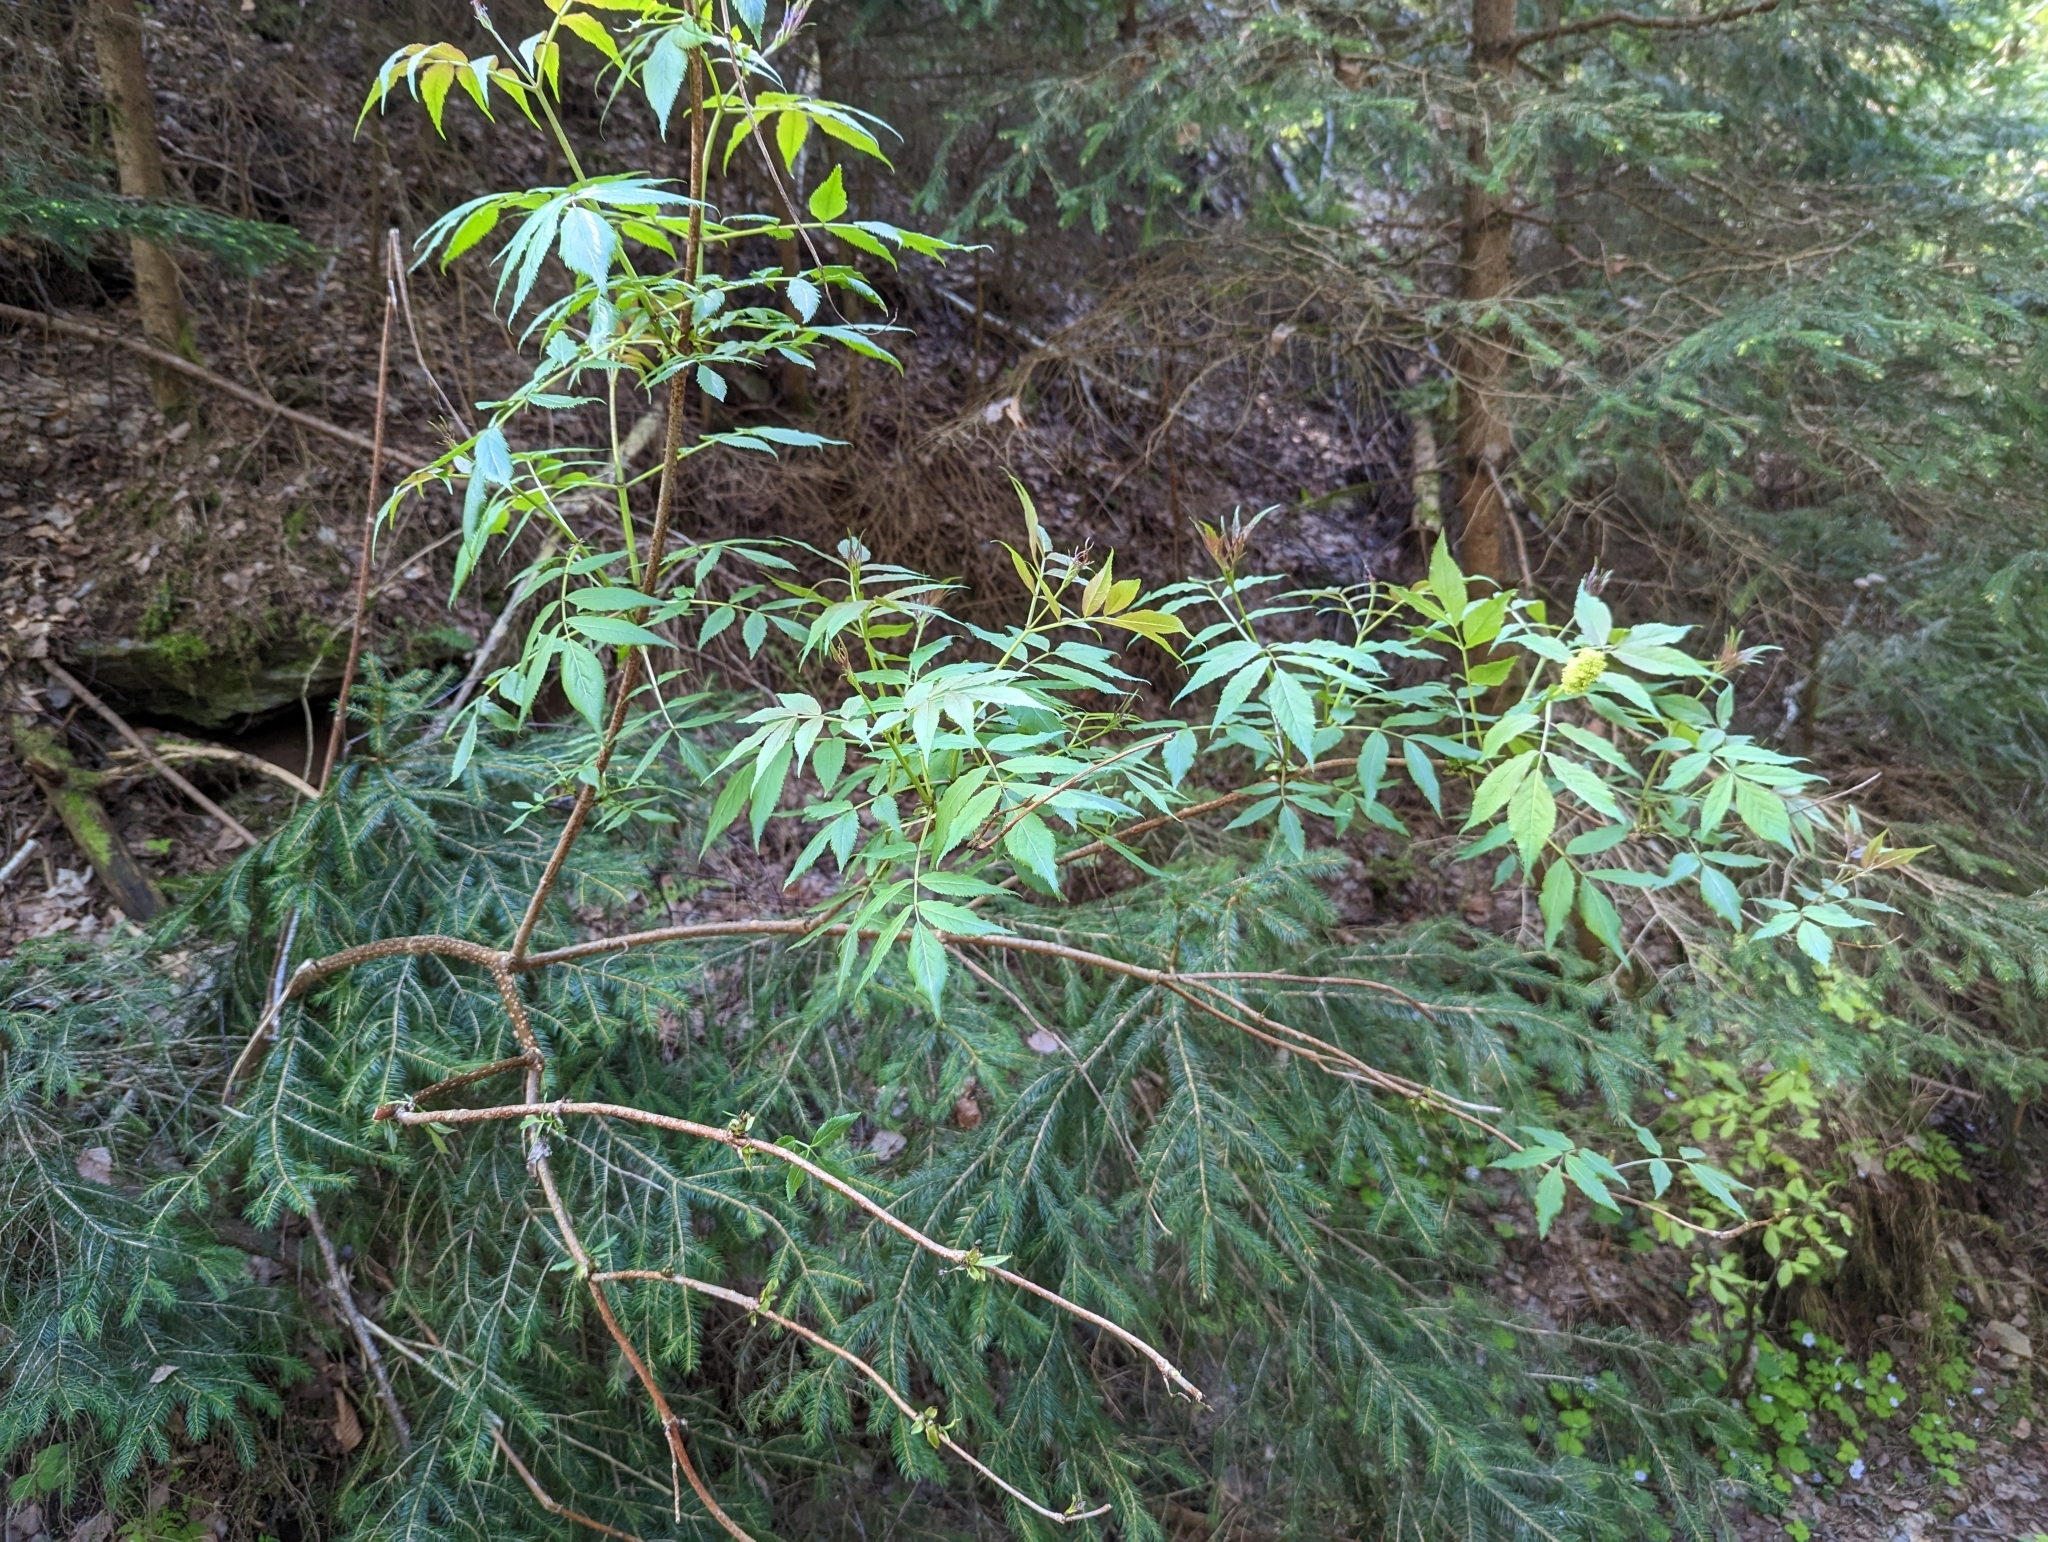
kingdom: Plantae
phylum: Tracheophyta
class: Magnoliopsida
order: Dipsacales
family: Viburnaceae
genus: Sambucus
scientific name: Sambucus racemosa
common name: Red-berried elder
